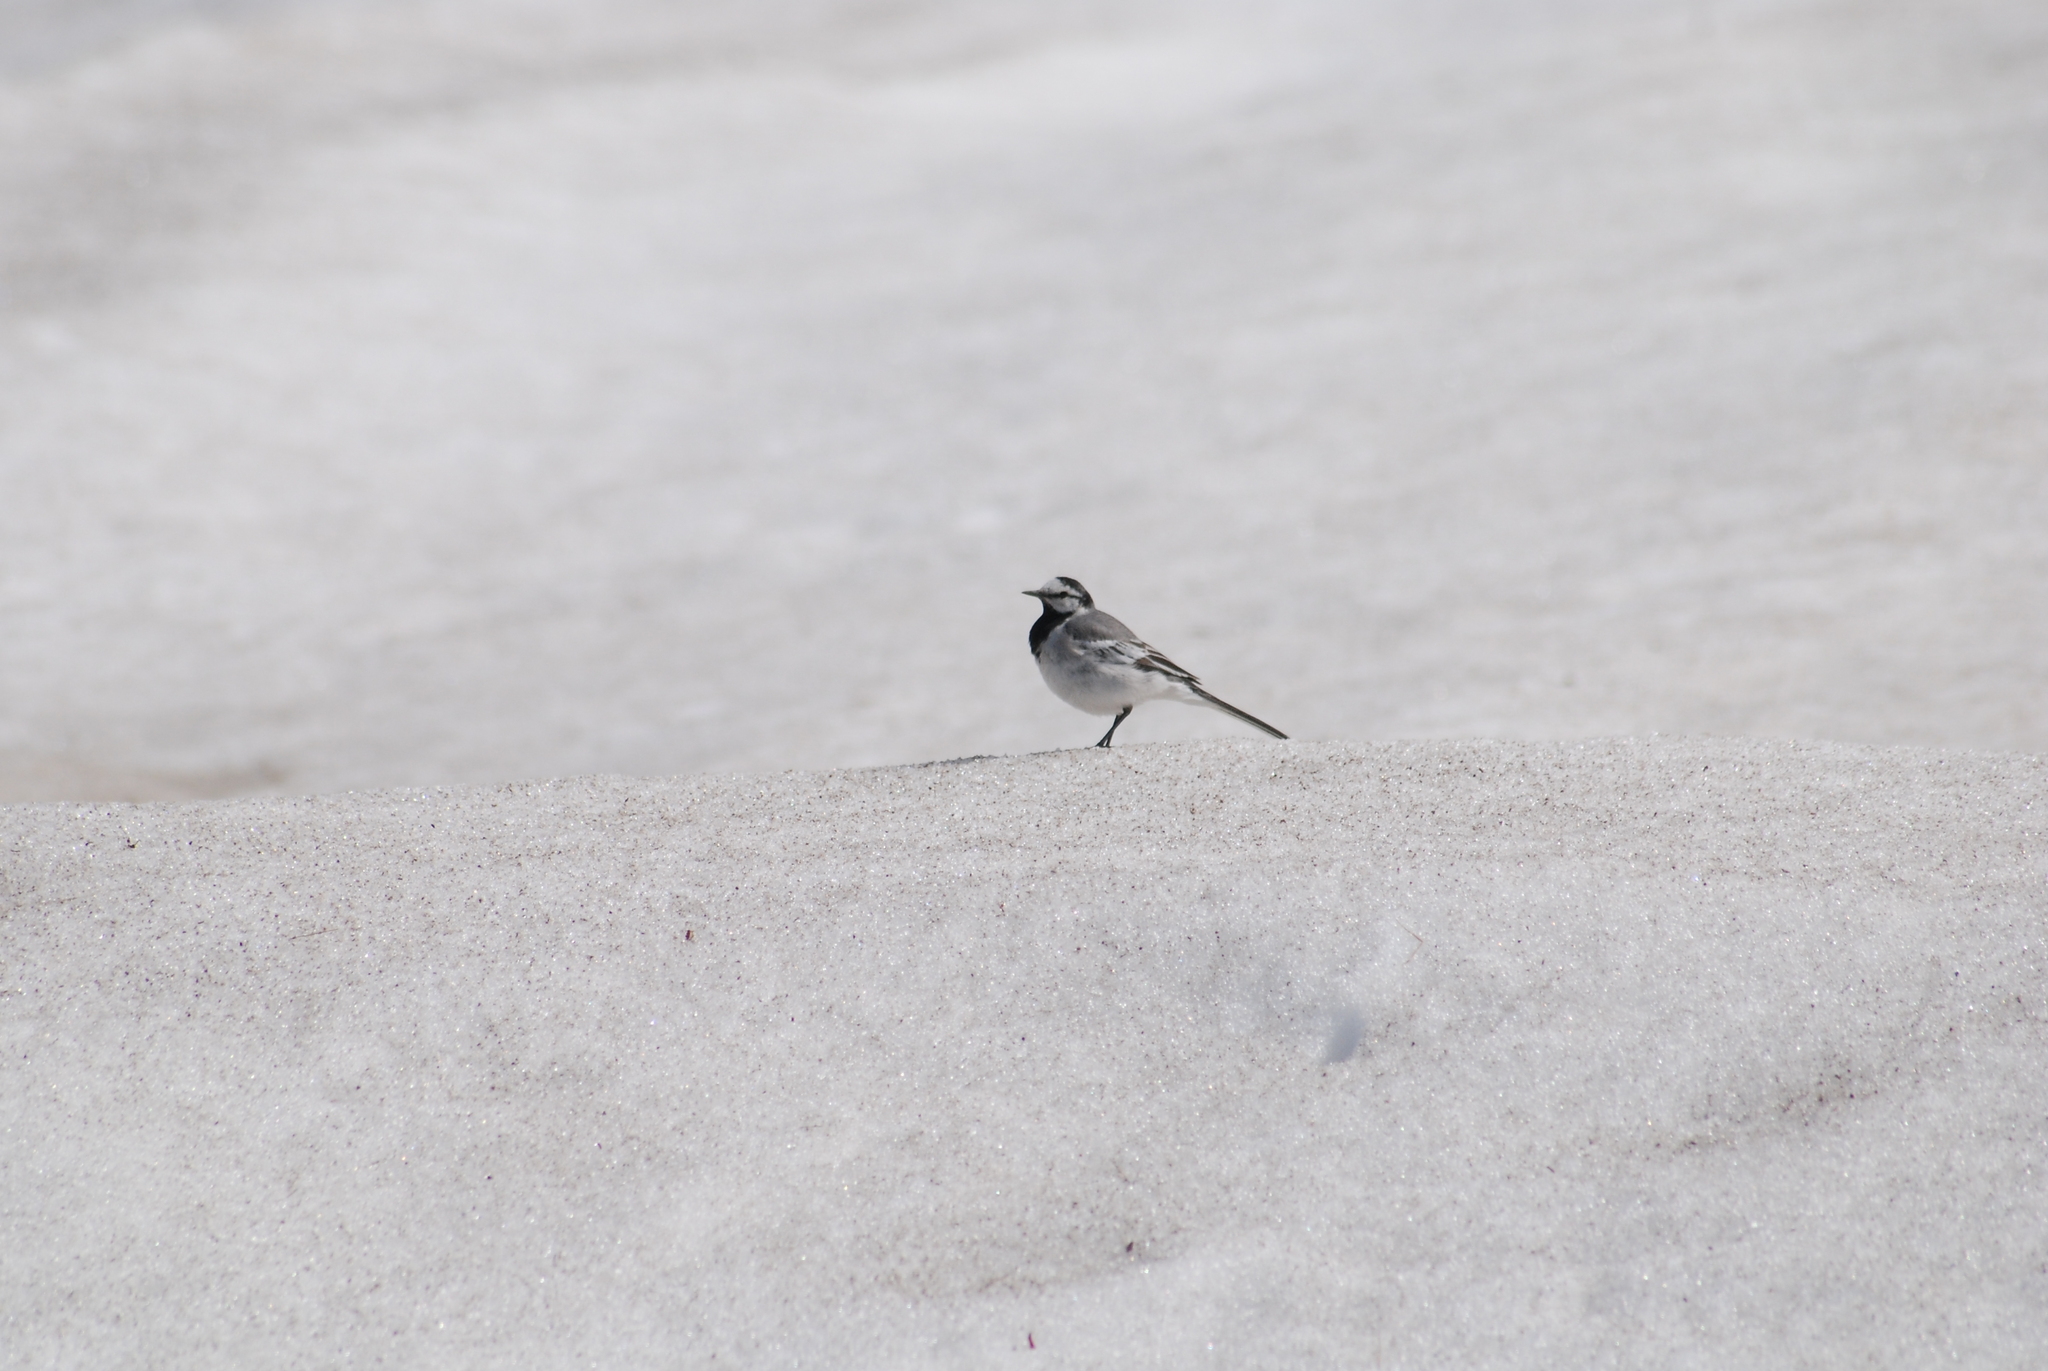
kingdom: Animalia
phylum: Chordata
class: Aves
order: Passeriformes
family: Motacillidae
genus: Motacilla
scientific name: Motacilla alba
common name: White wagtail
